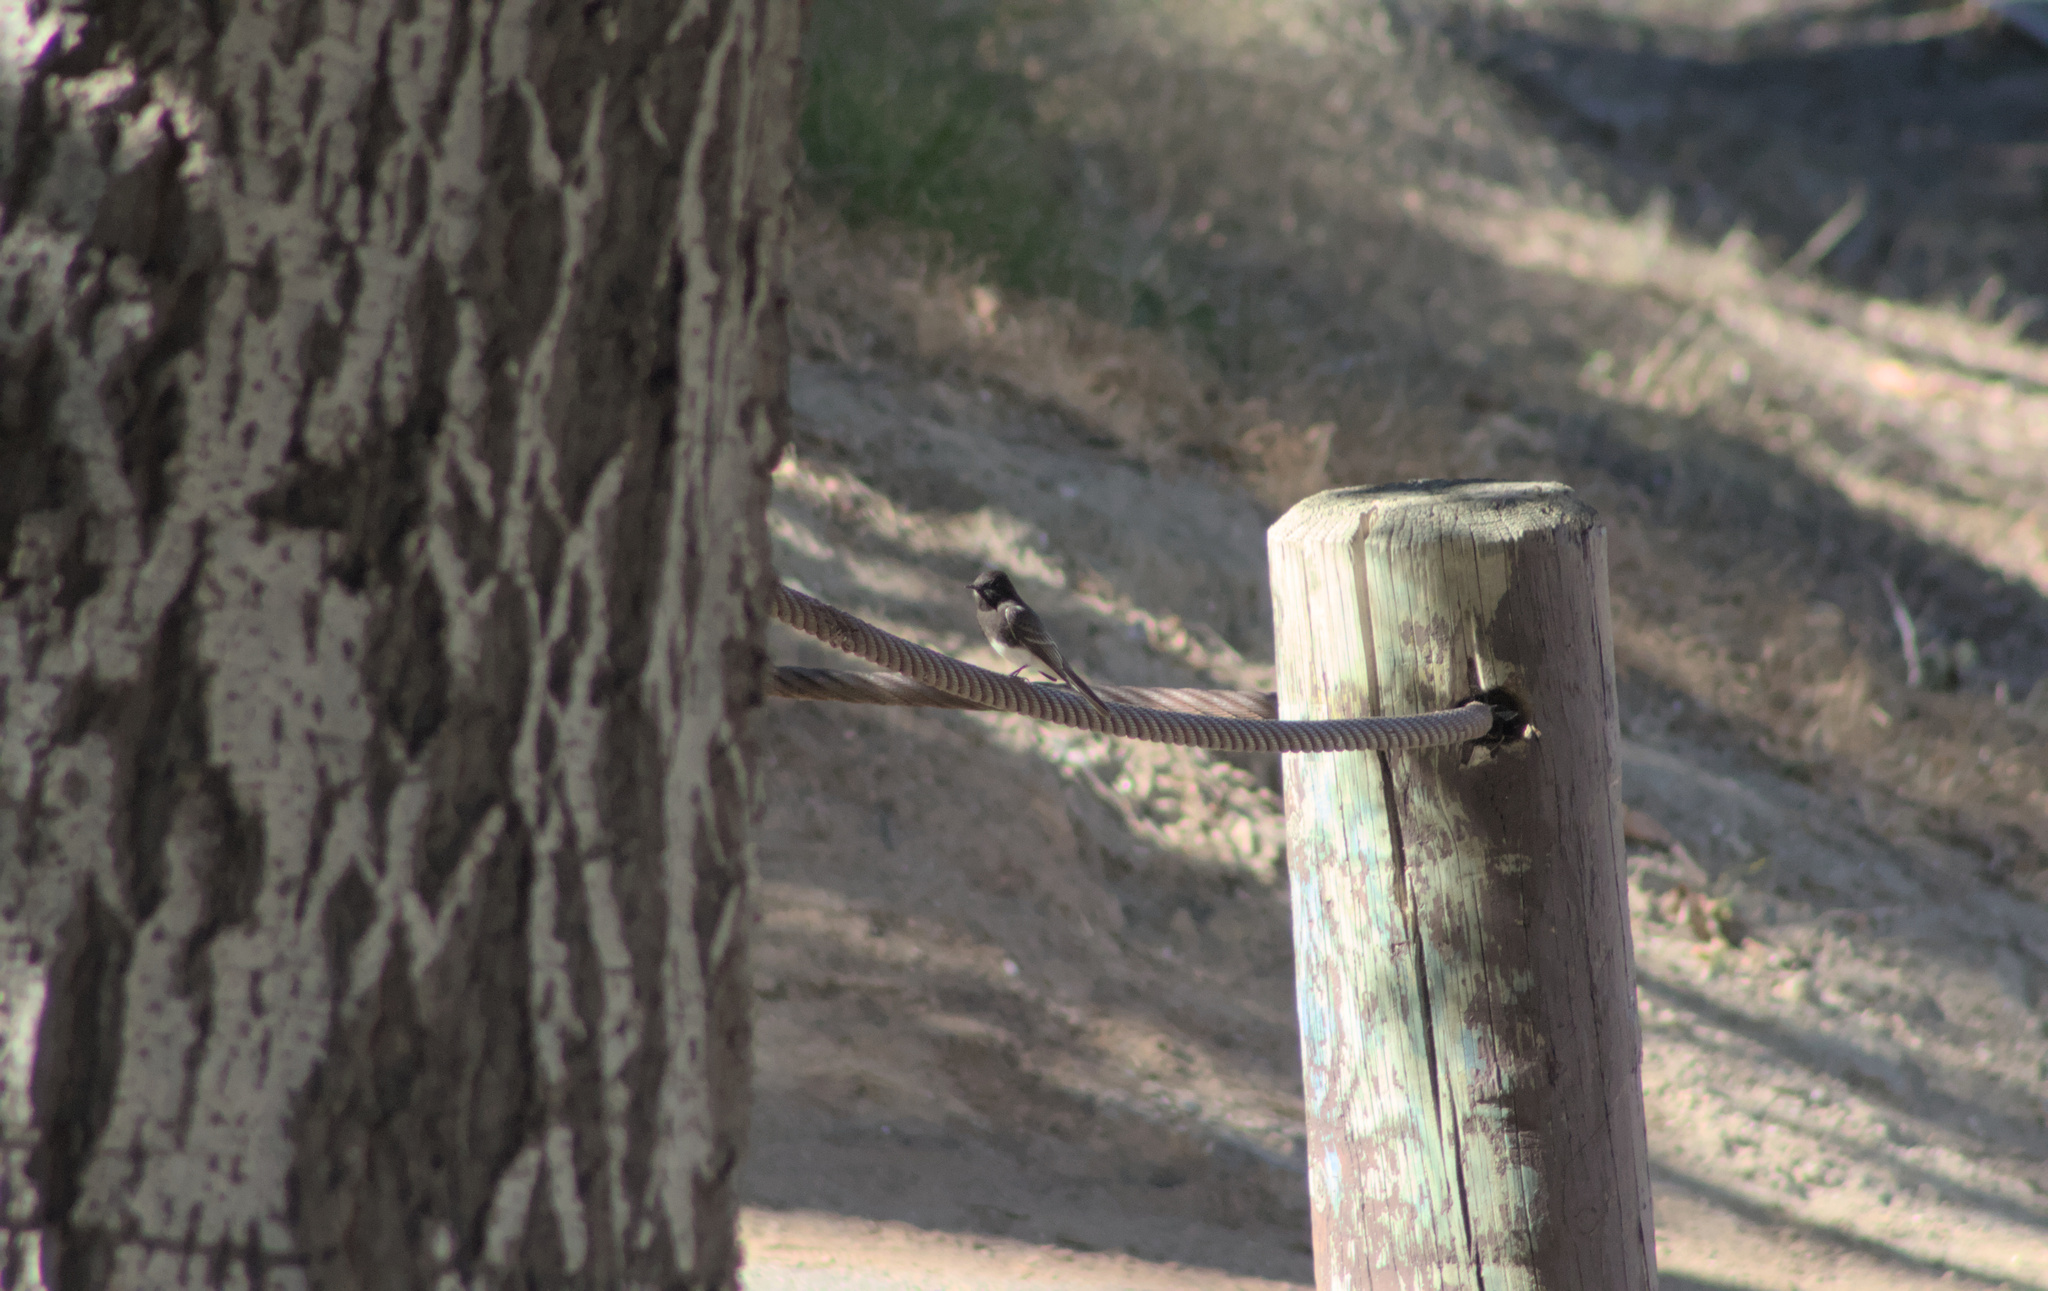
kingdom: Animalia
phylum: Chordata
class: Aves
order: Passeriformes
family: Tyrannidae
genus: Sayornis
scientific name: Sayornis nigricans
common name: Black phoebe
